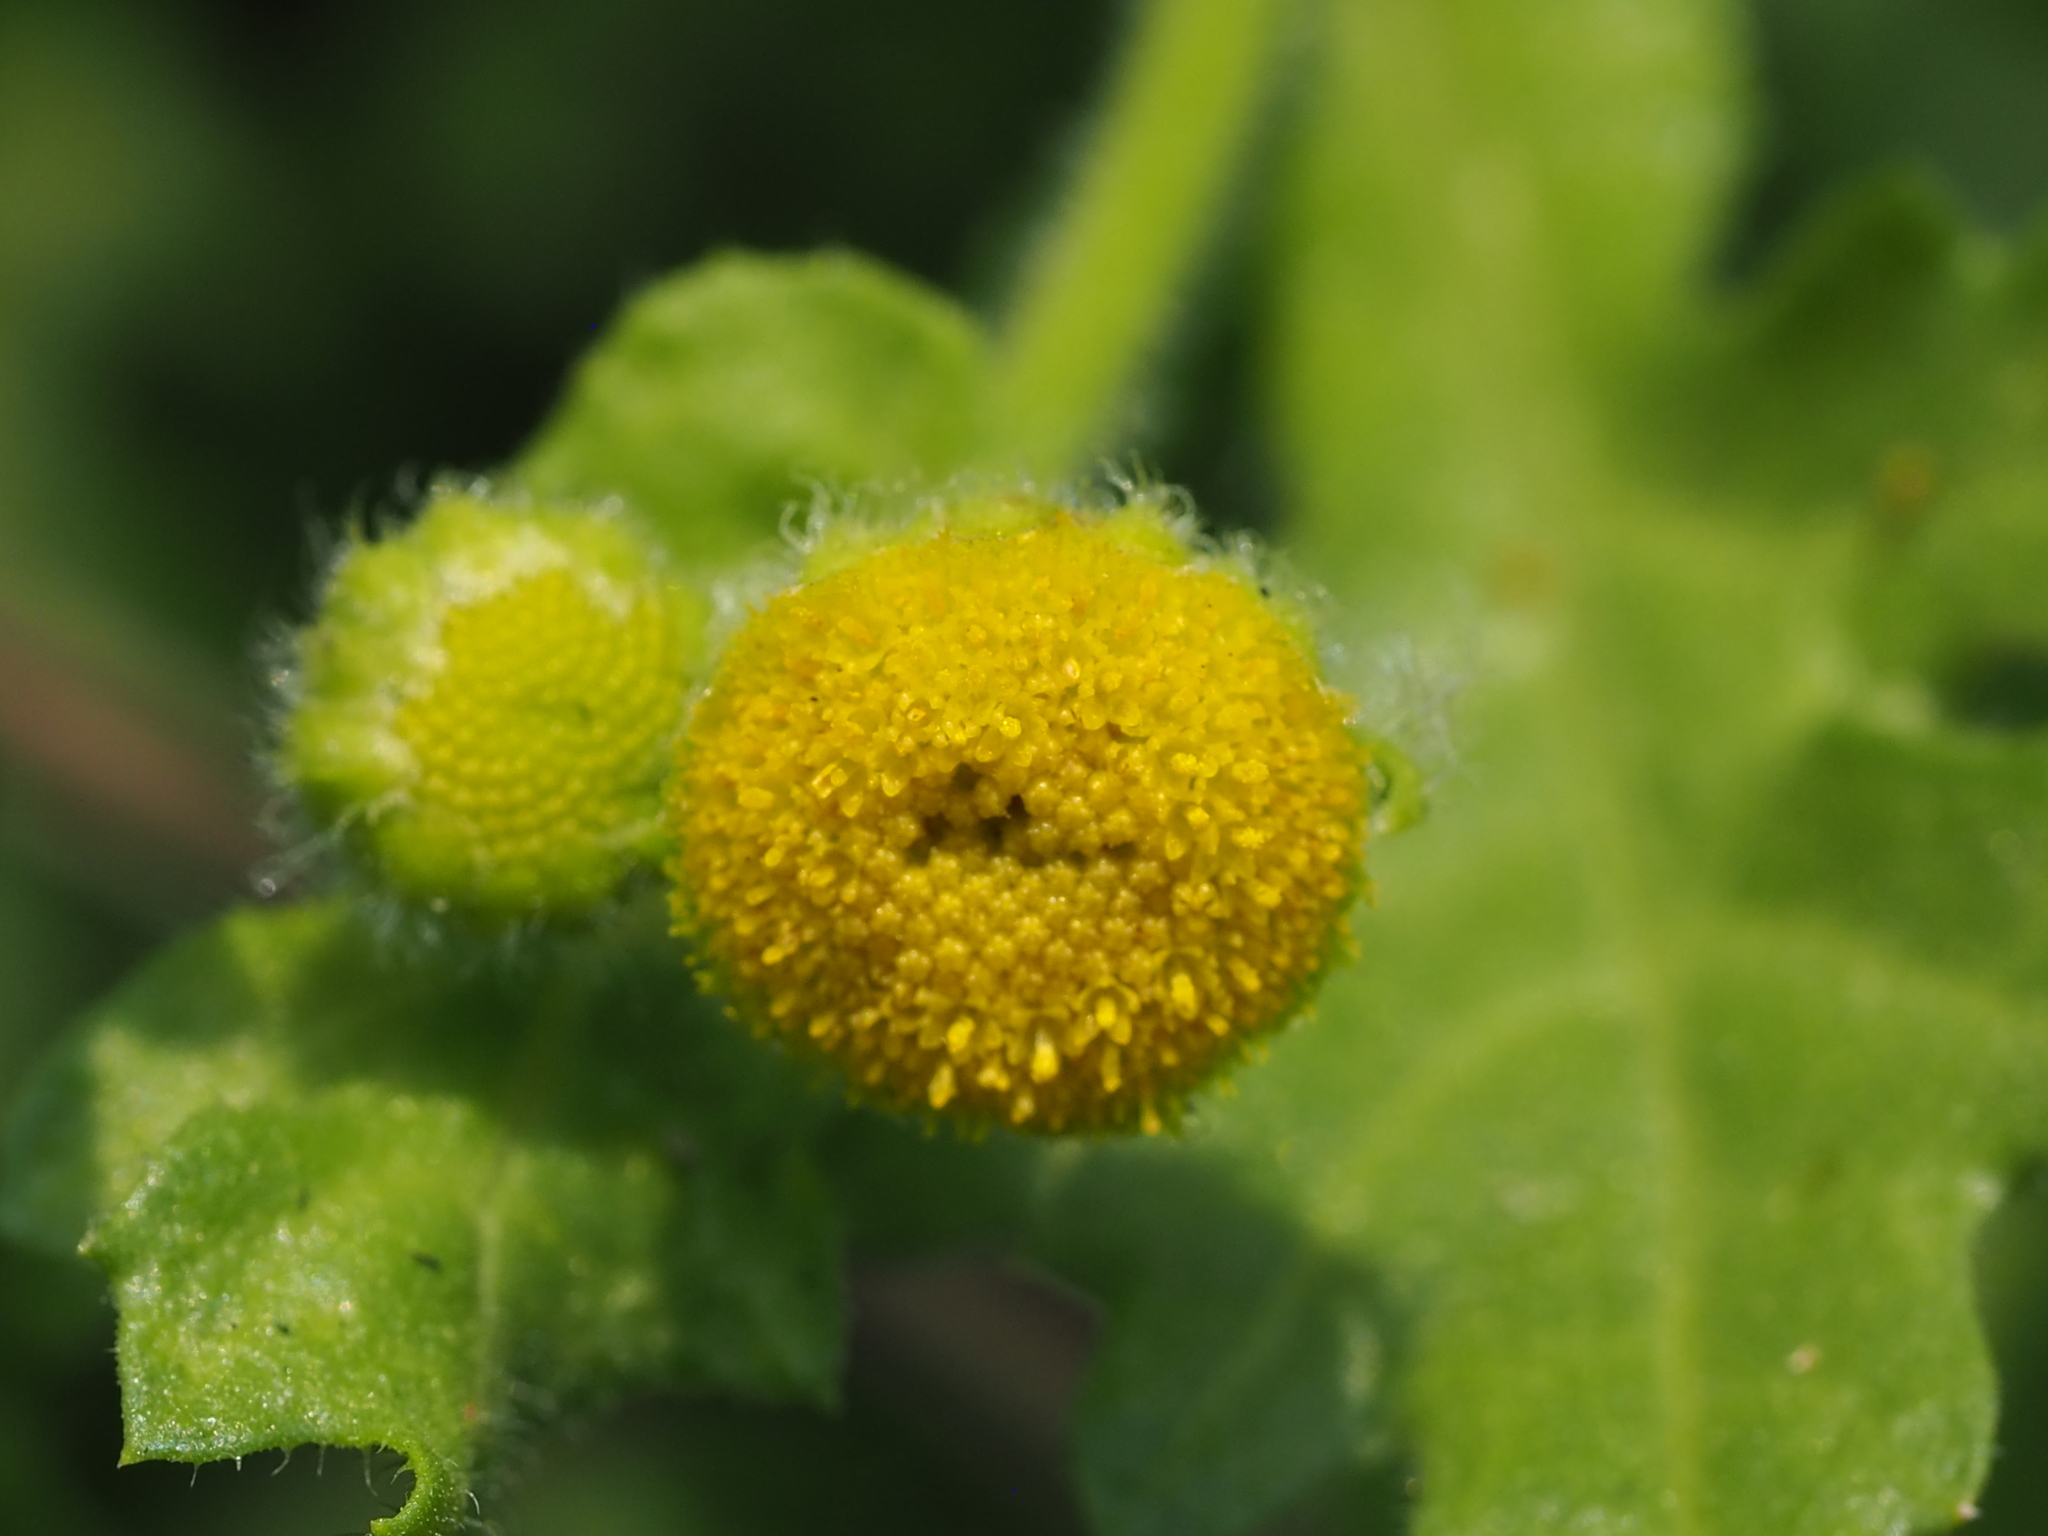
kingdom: Plantae
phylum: Tracheophyta
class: Magnoliopsida
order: Asterales
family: Asteraceae
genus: Grangea
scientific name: Grangea maderaspatana
